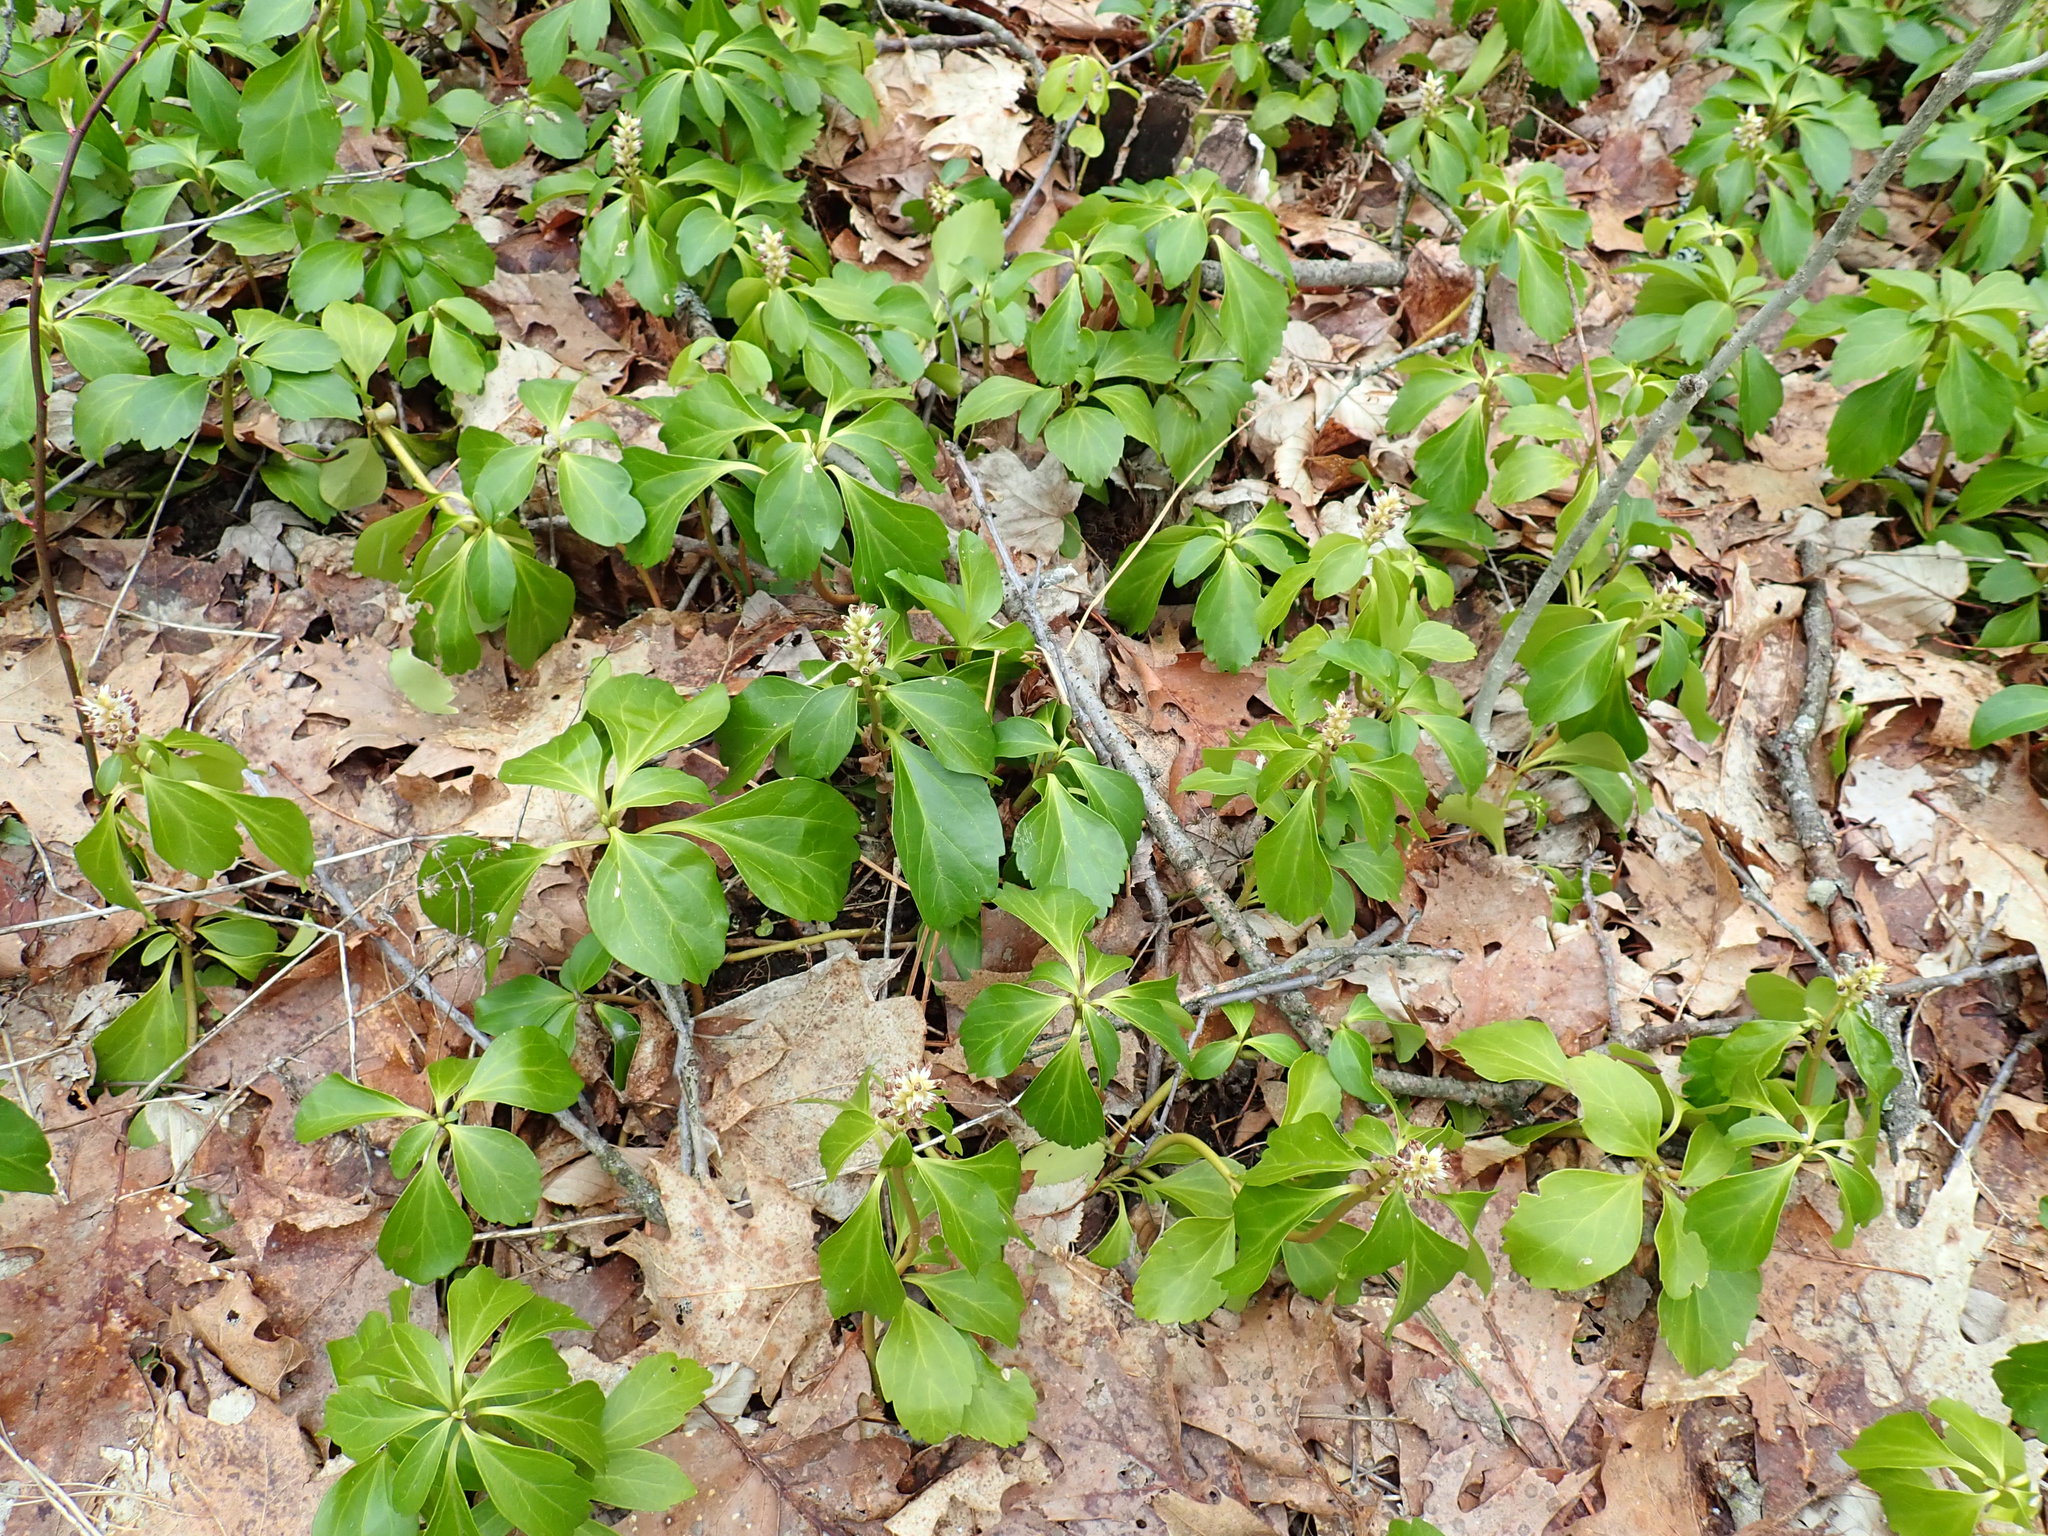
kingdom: Plantae
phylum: Tracheophyta
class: Magnoliopsida
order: Buxales
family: Buxaceae
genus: Pachysandra
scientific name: Pachysandra terminalis
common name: Japanese pachysandra
